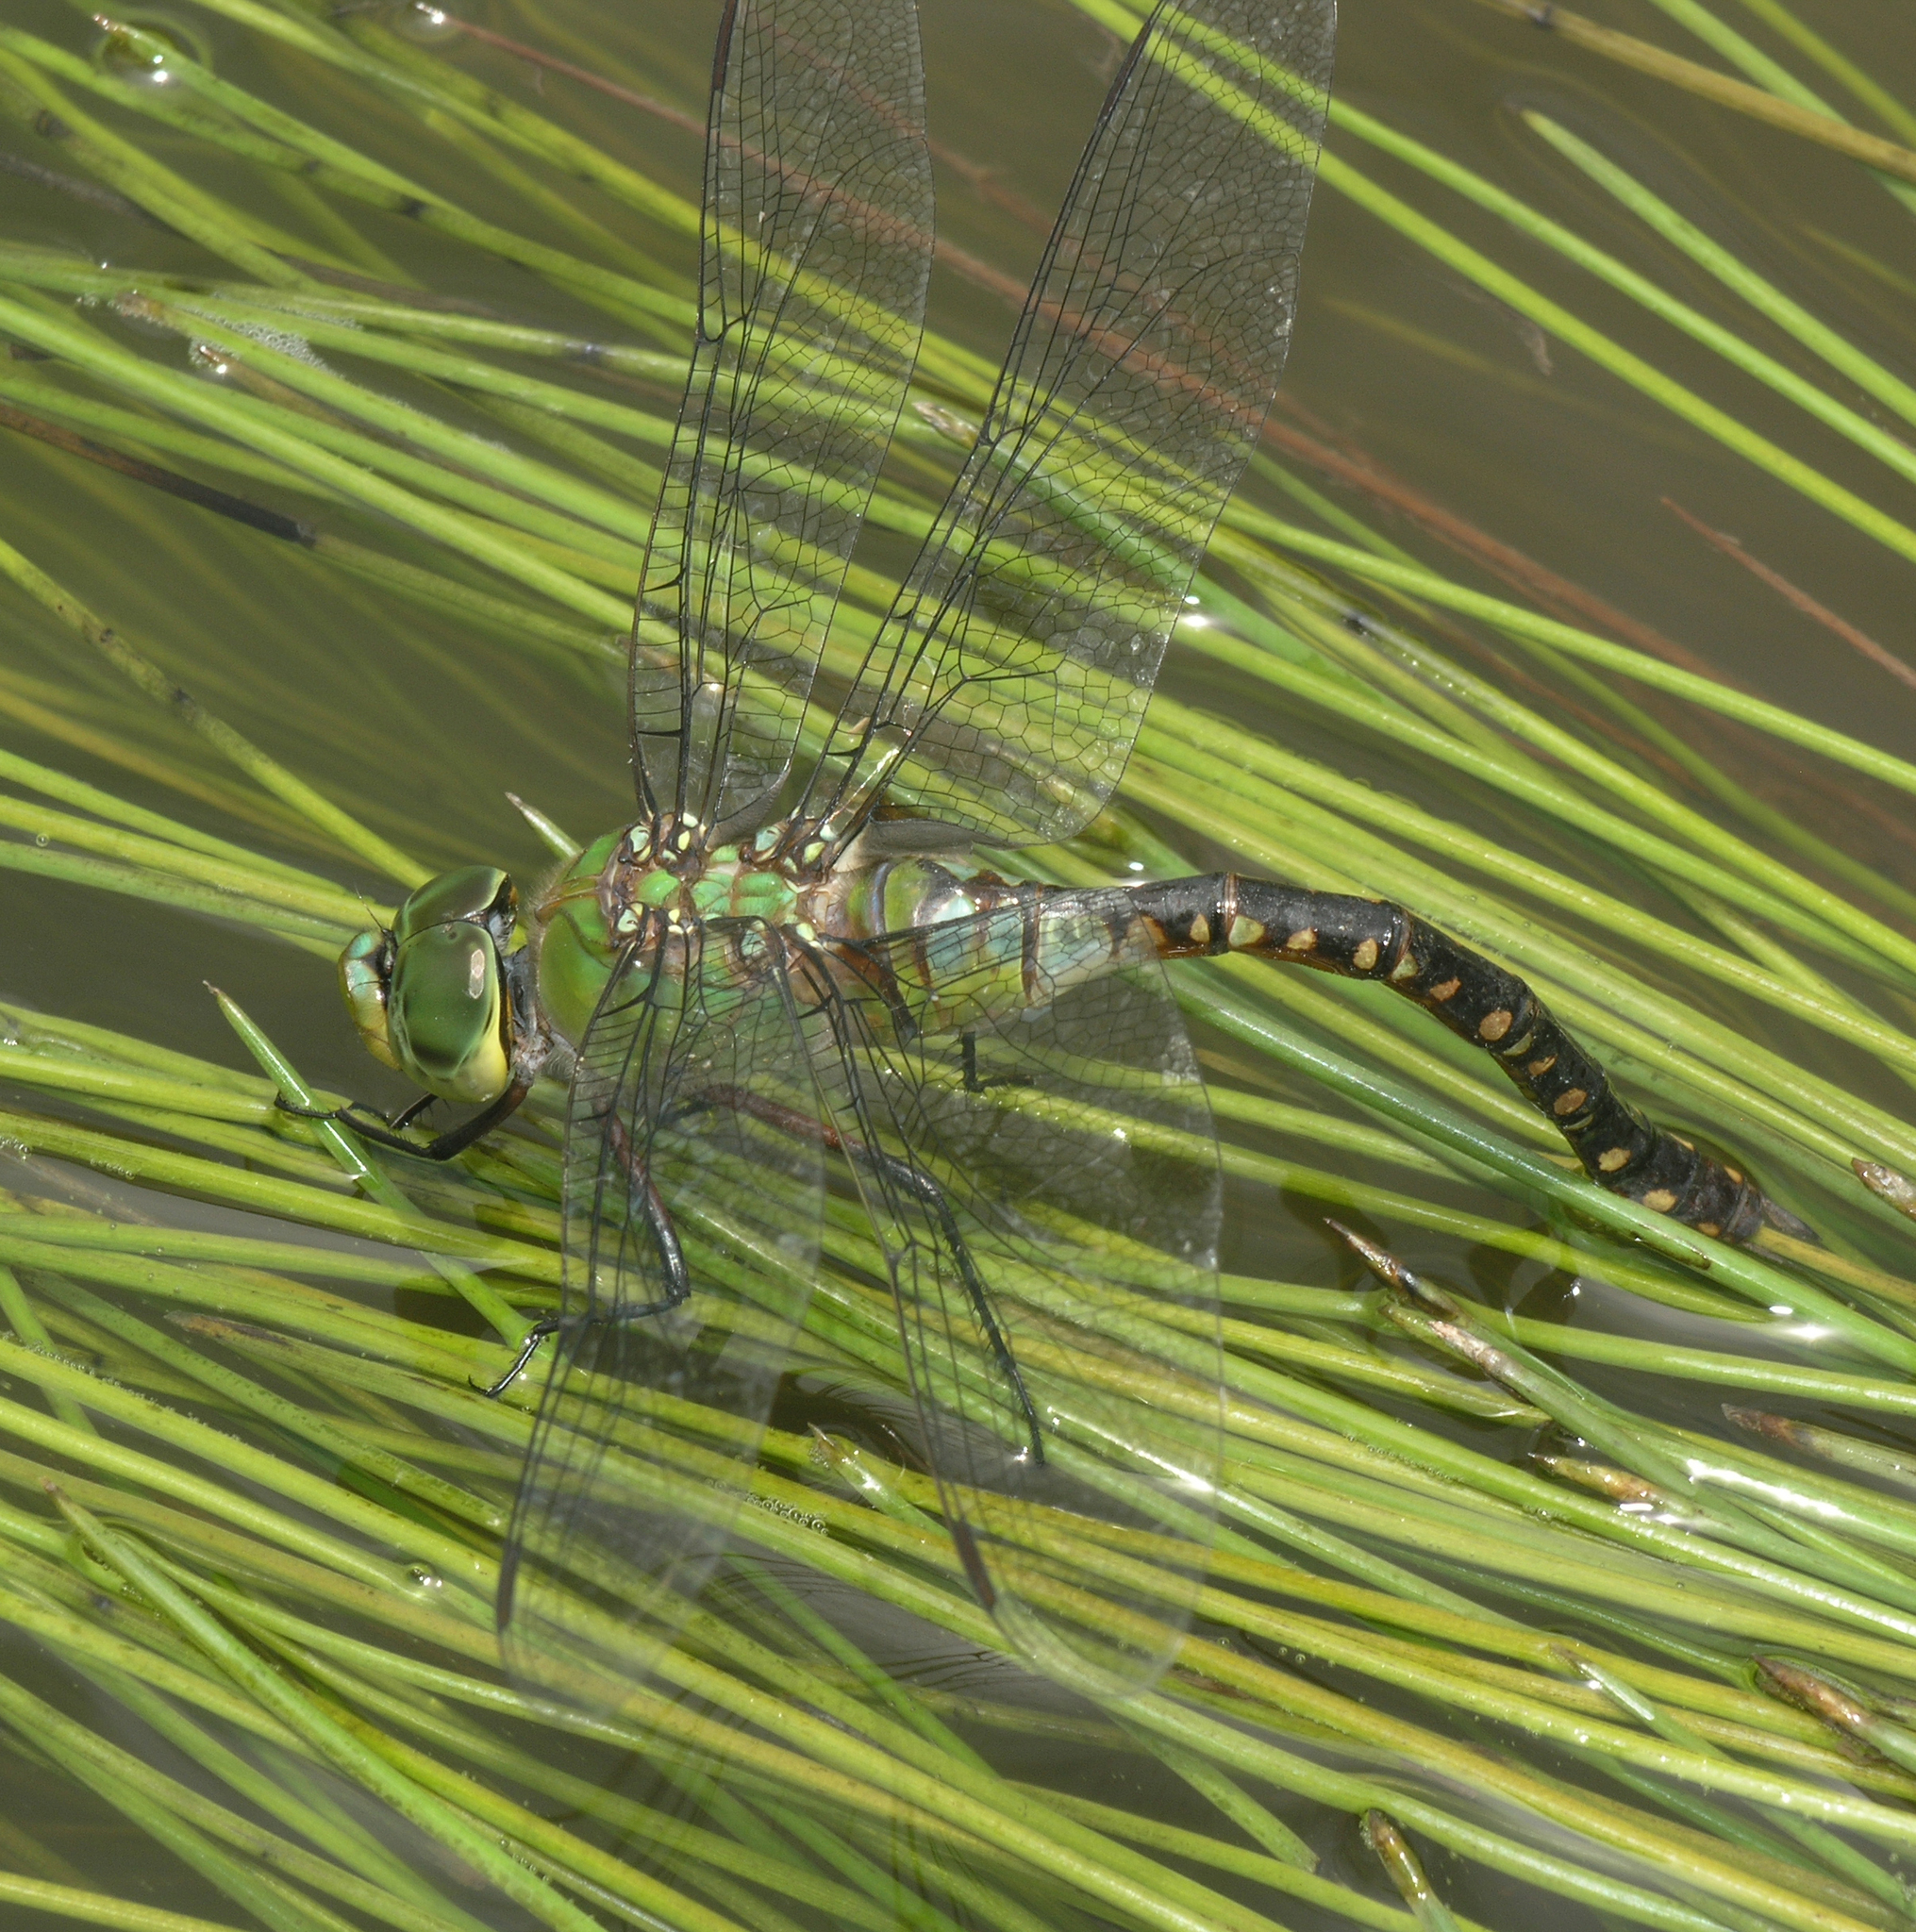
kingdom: Animalia
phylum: Arthropoda
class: Insecta
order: Odonata
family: Aeshnidae
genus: Anax
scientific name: Anax guttatus
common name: Emperor
